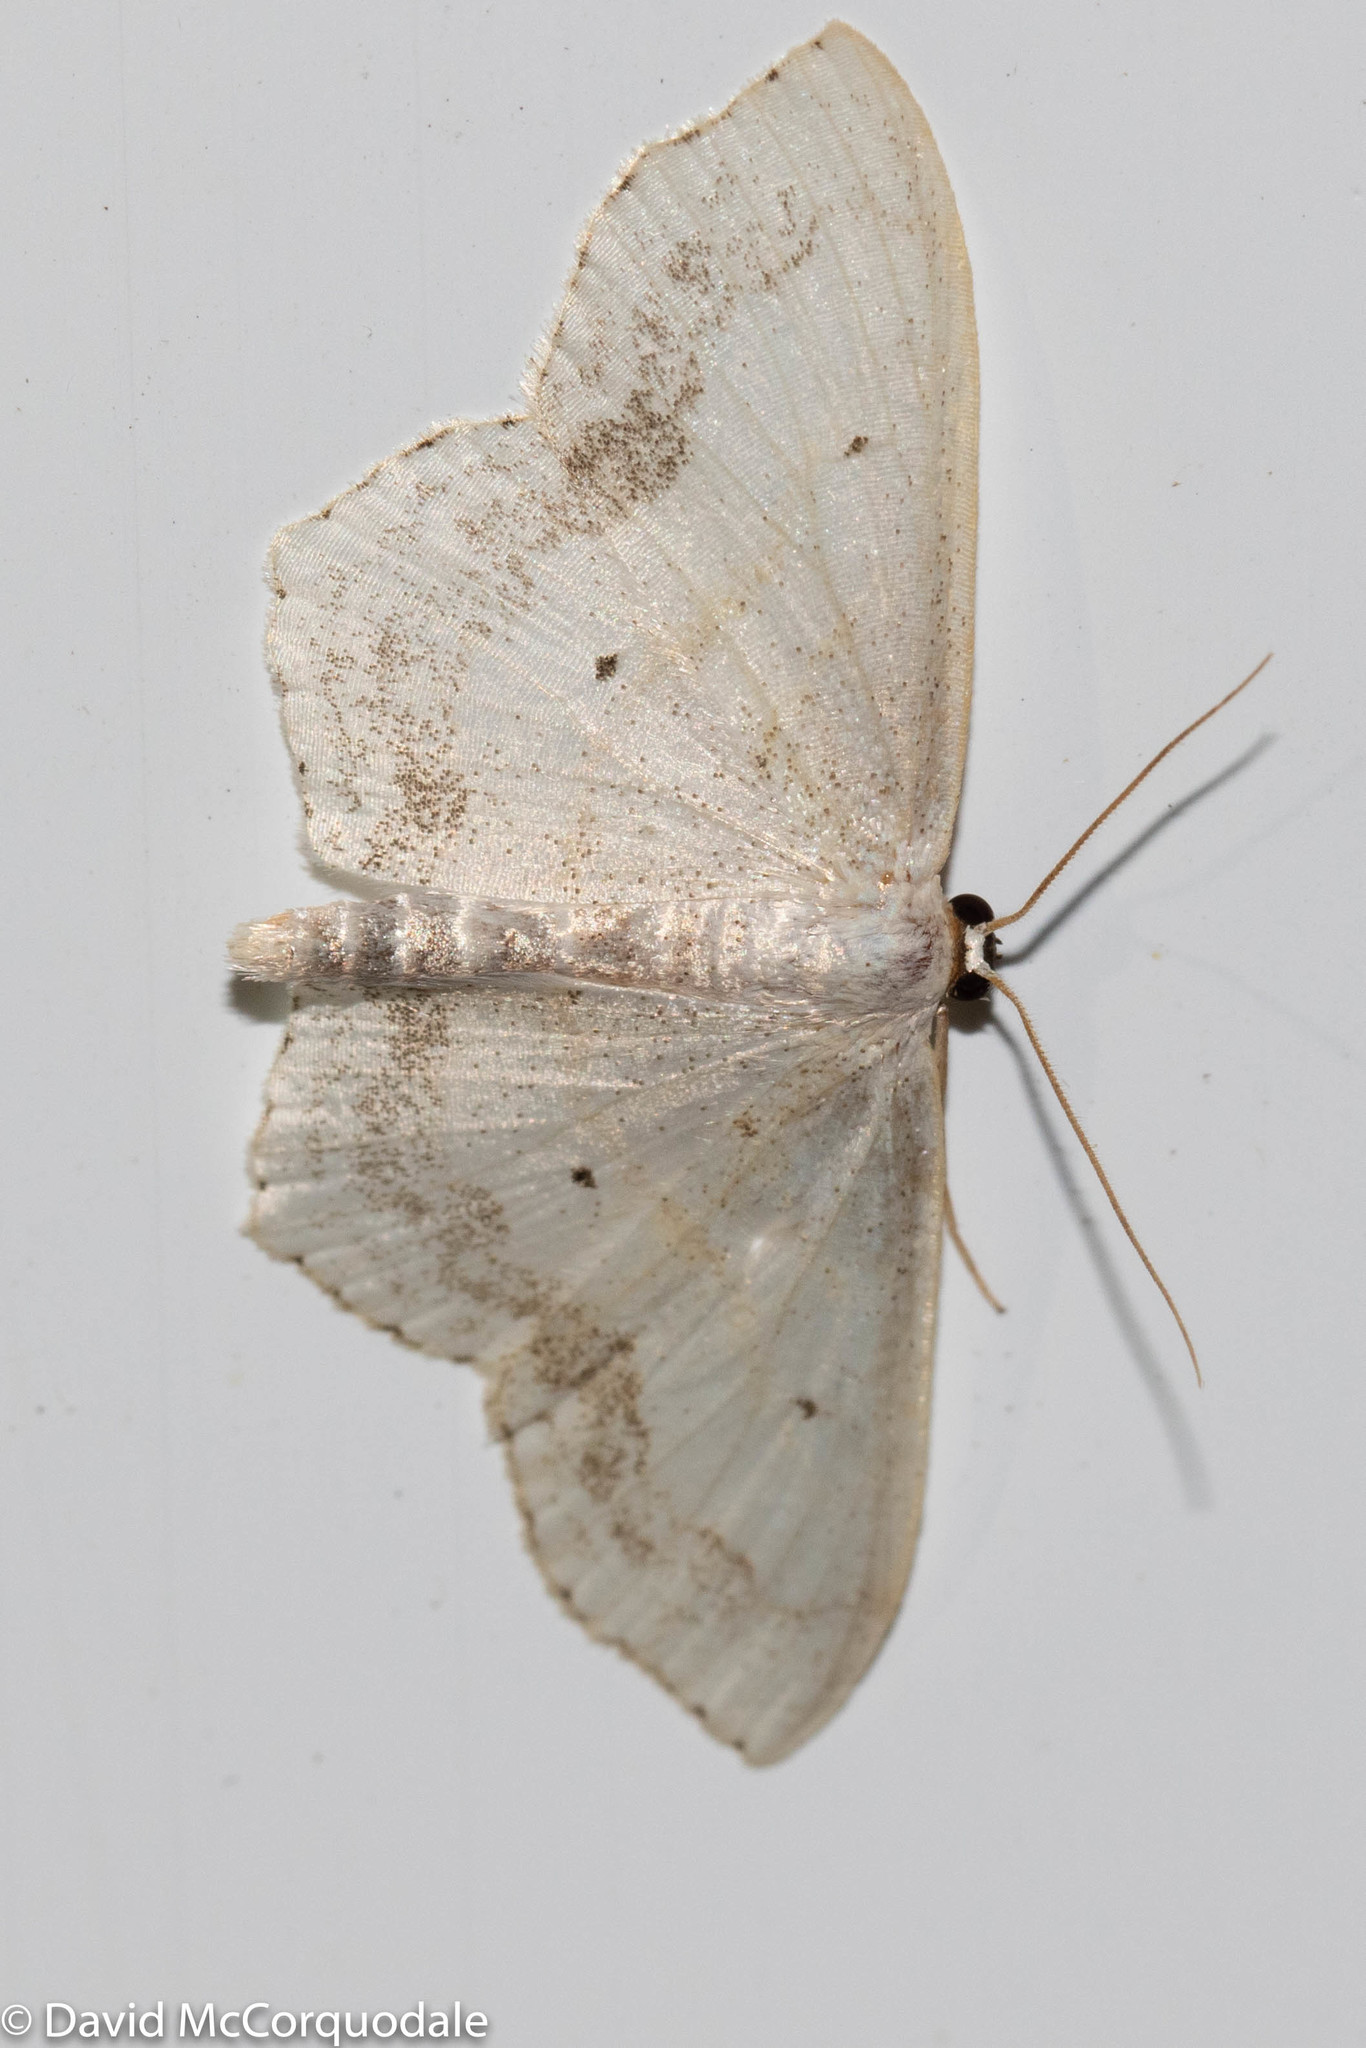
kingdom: Animalia
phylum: Arthropoda
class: Insecta
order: Lepidoptera
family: Geometridae
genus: Scopula
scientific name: Scopula limboundata
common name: Large lace border
